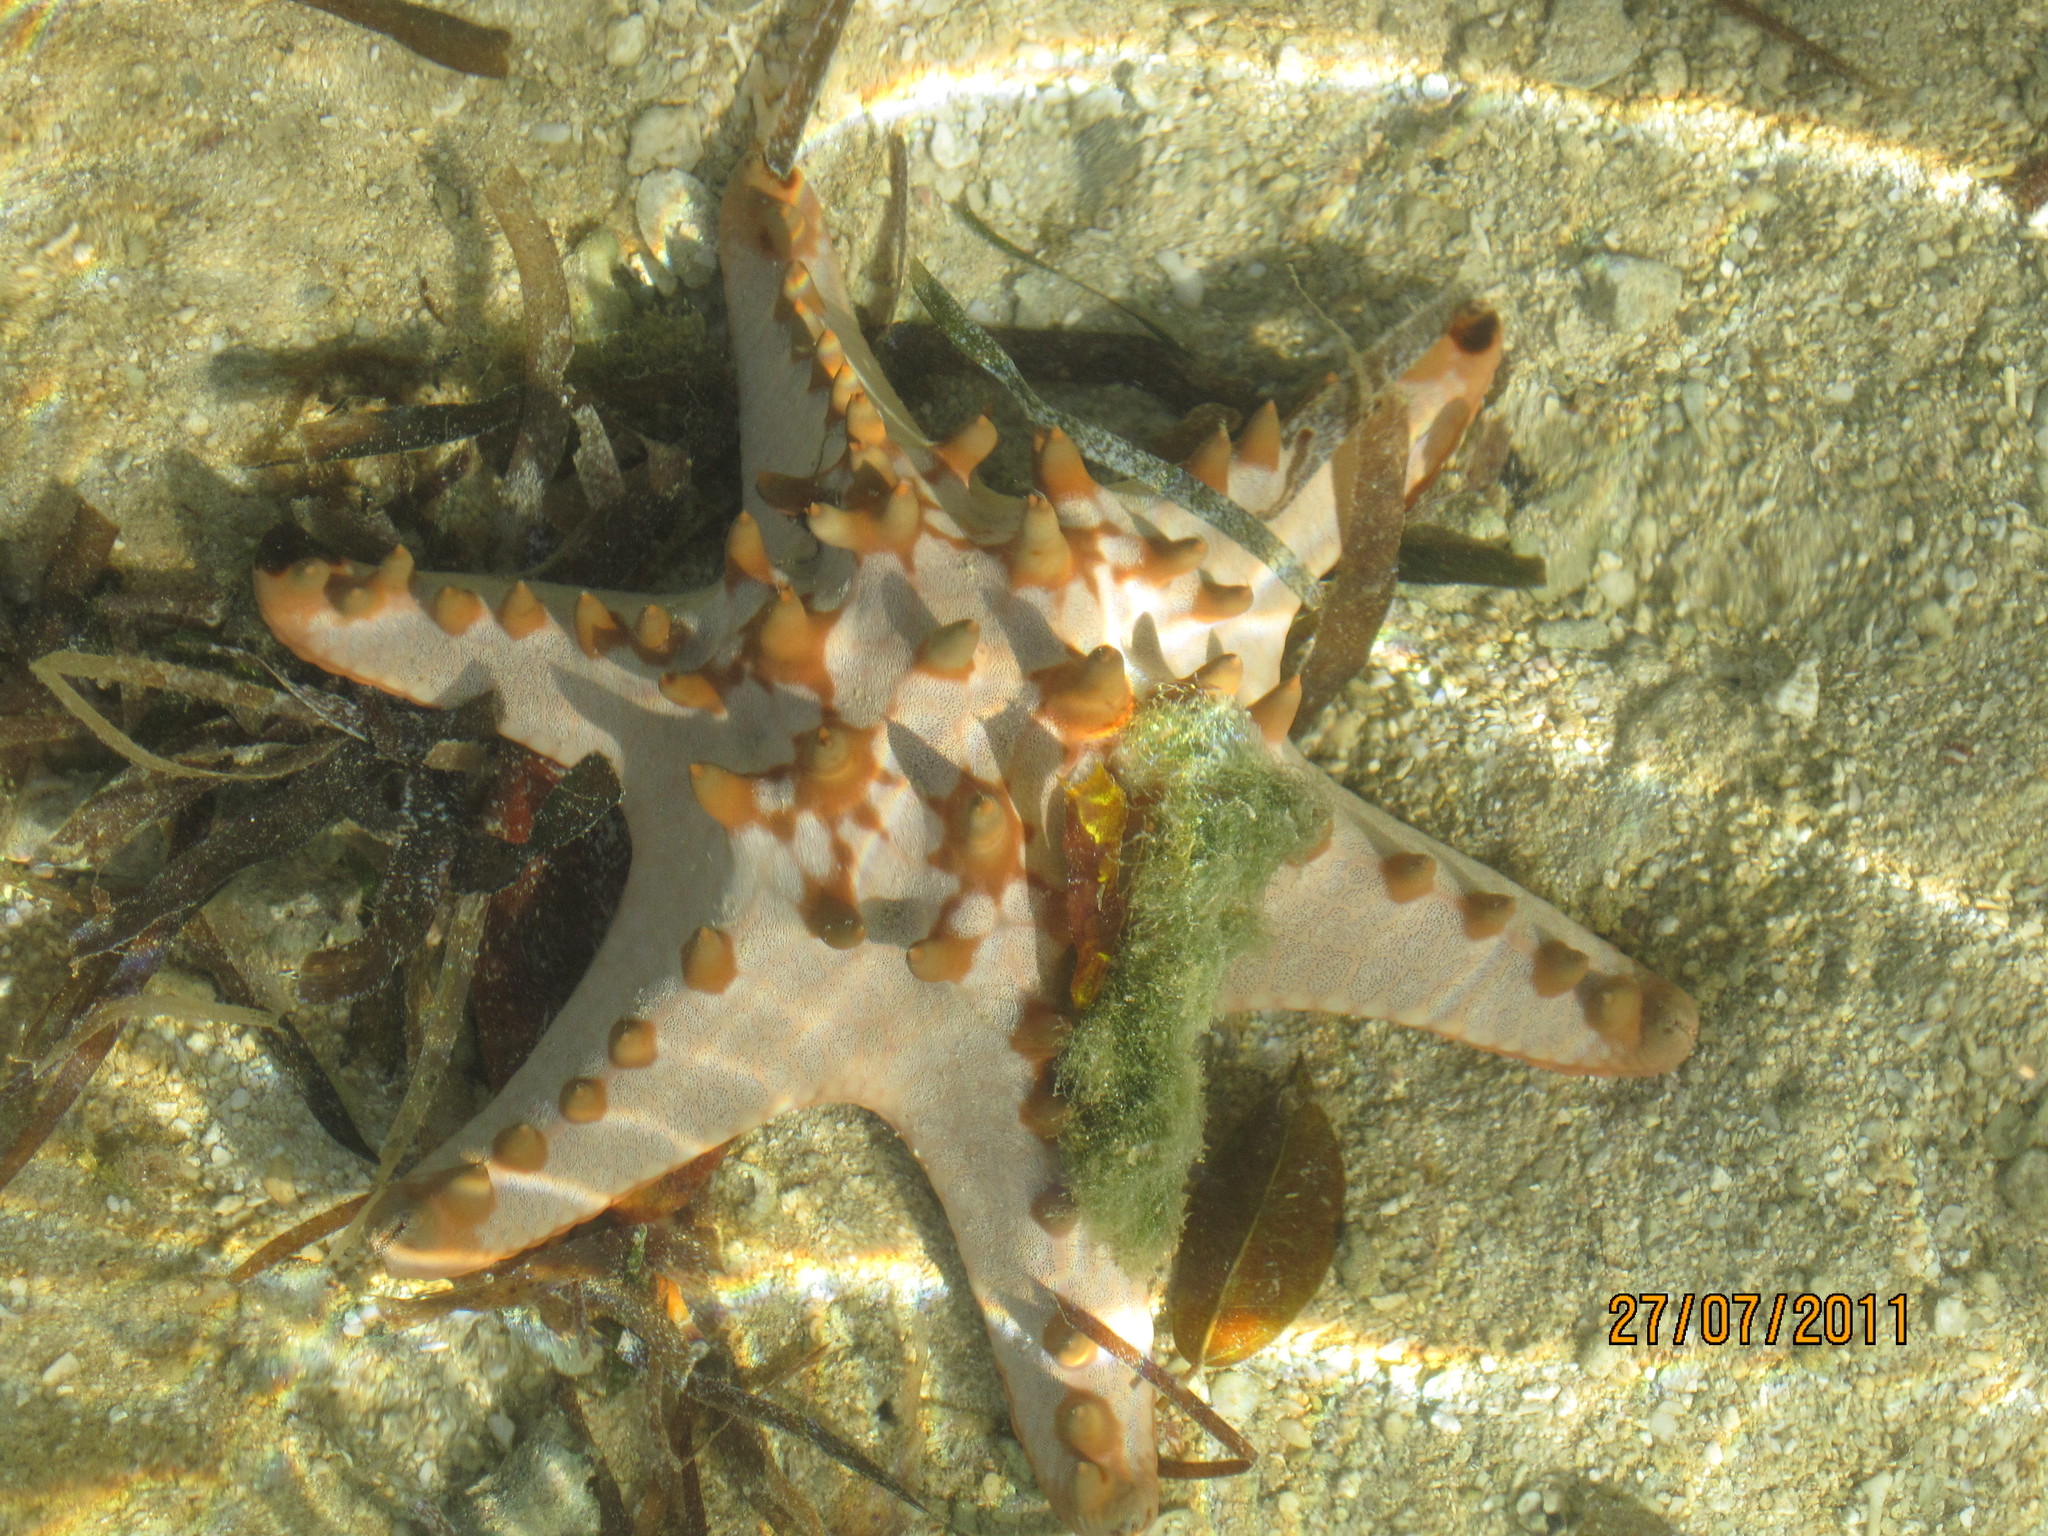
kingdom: Animalia
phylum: Echinodermata
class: Asteroidea
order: Valvatida
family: Oreasteridae
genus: Protoreaster
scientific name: Protoreaster nodosus
